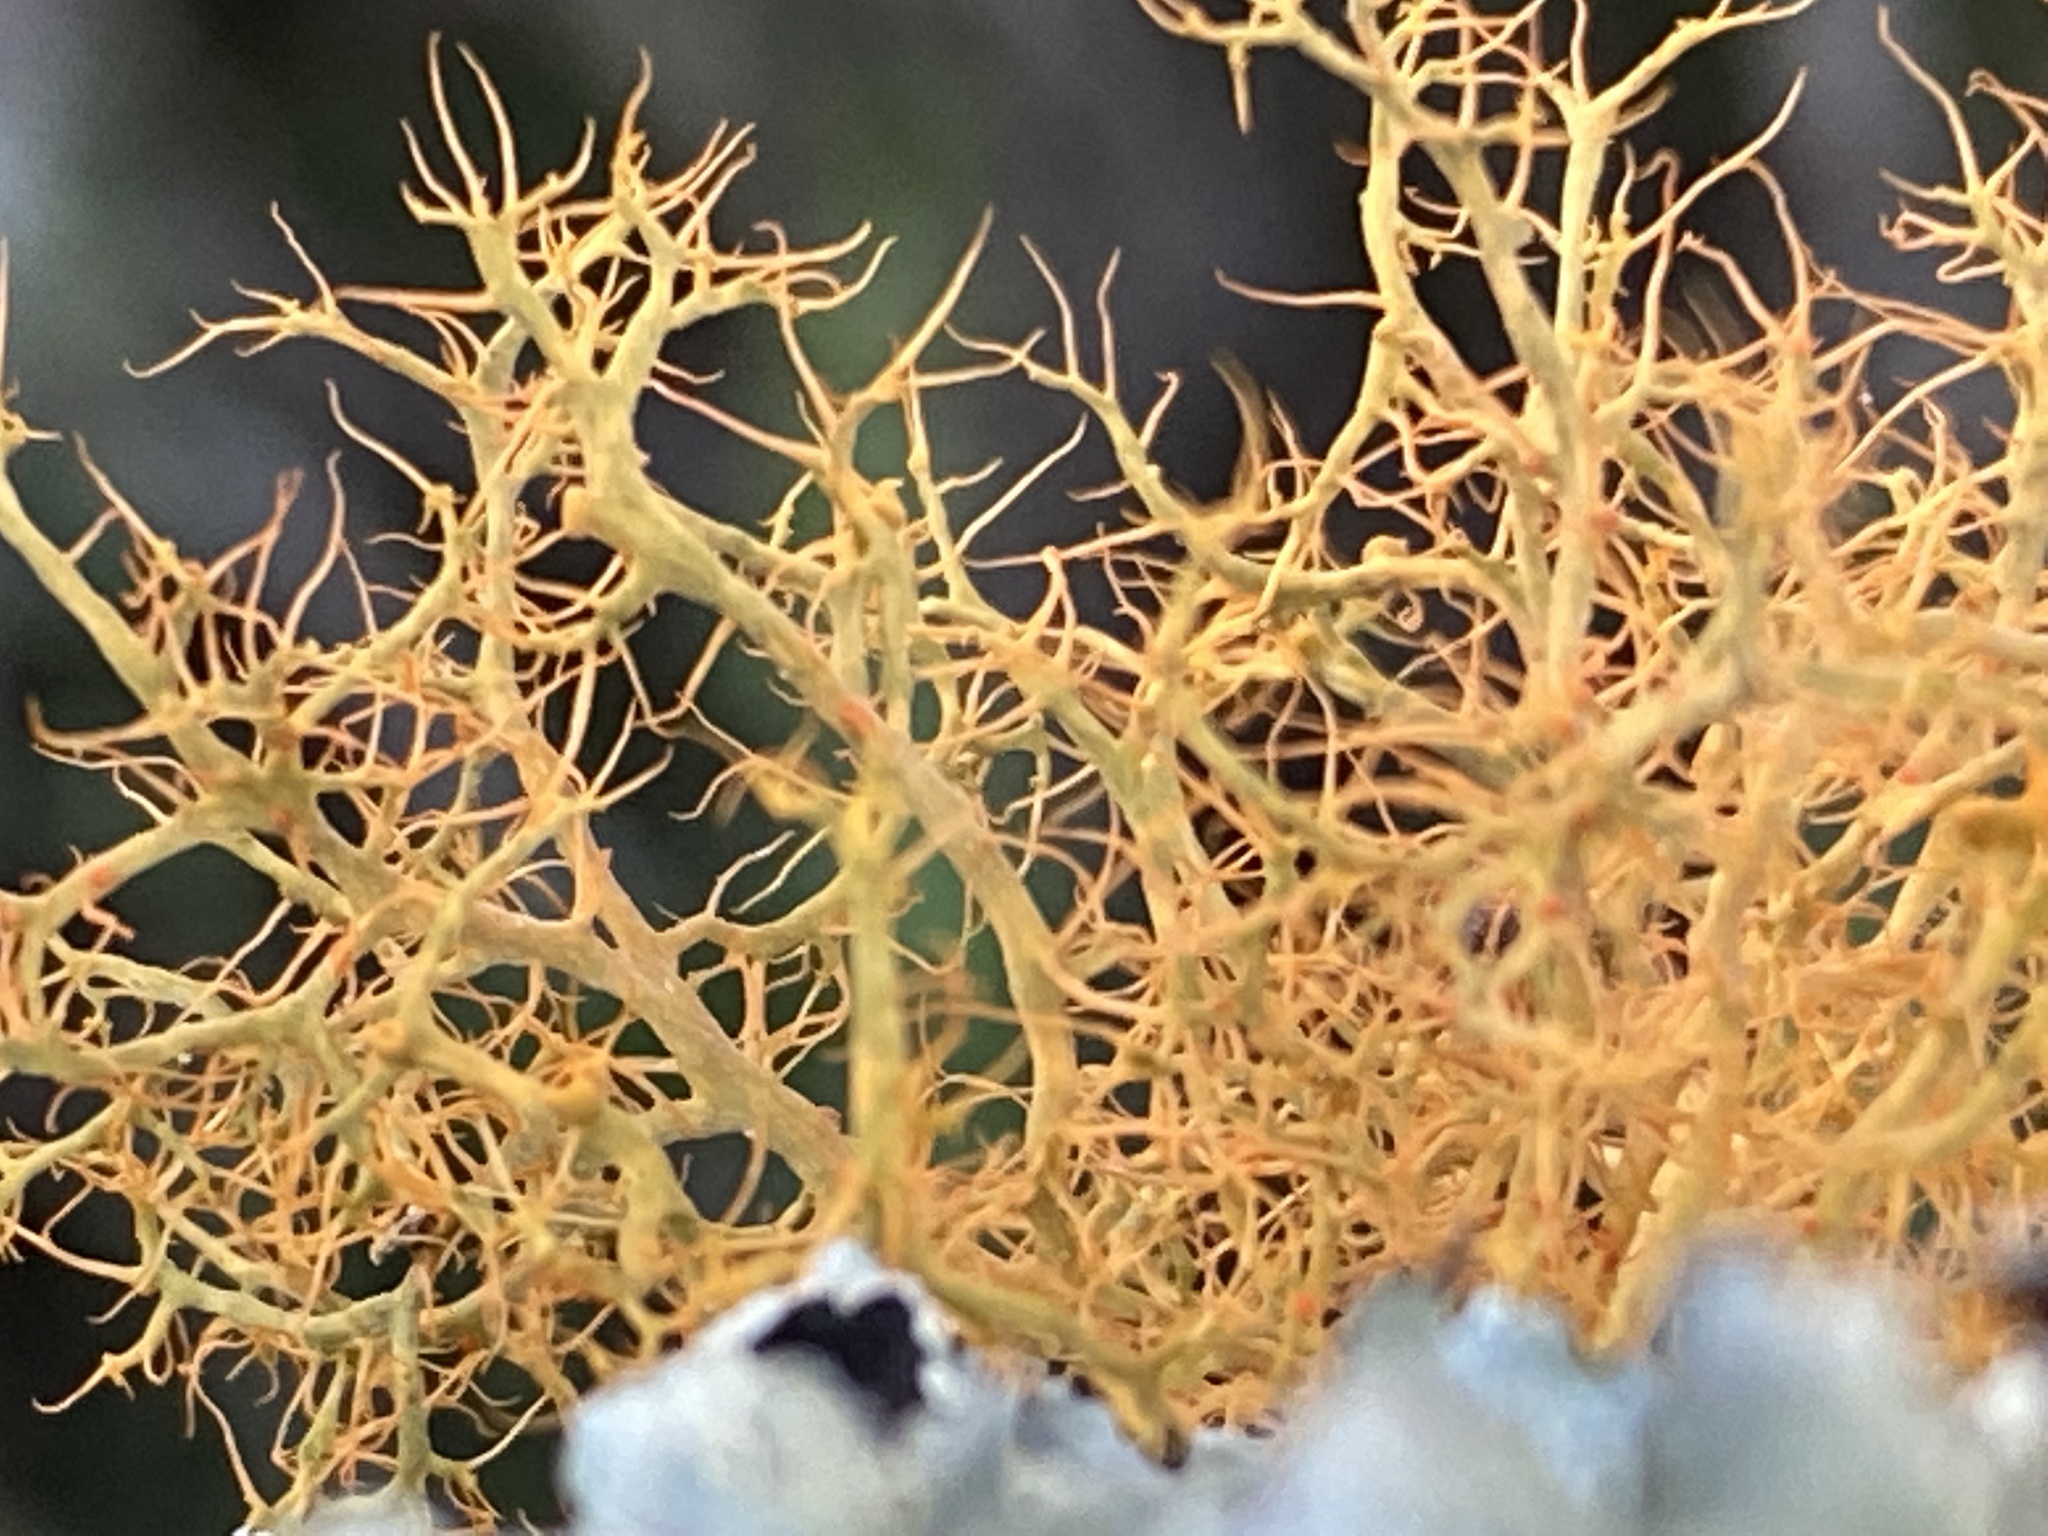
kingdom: Fungi
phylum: Ascomycota
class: Lecanoromycetes
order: Teloschistales
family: Teloschistaceae
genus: Teloschistes
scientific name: Teloschistes inflatus
